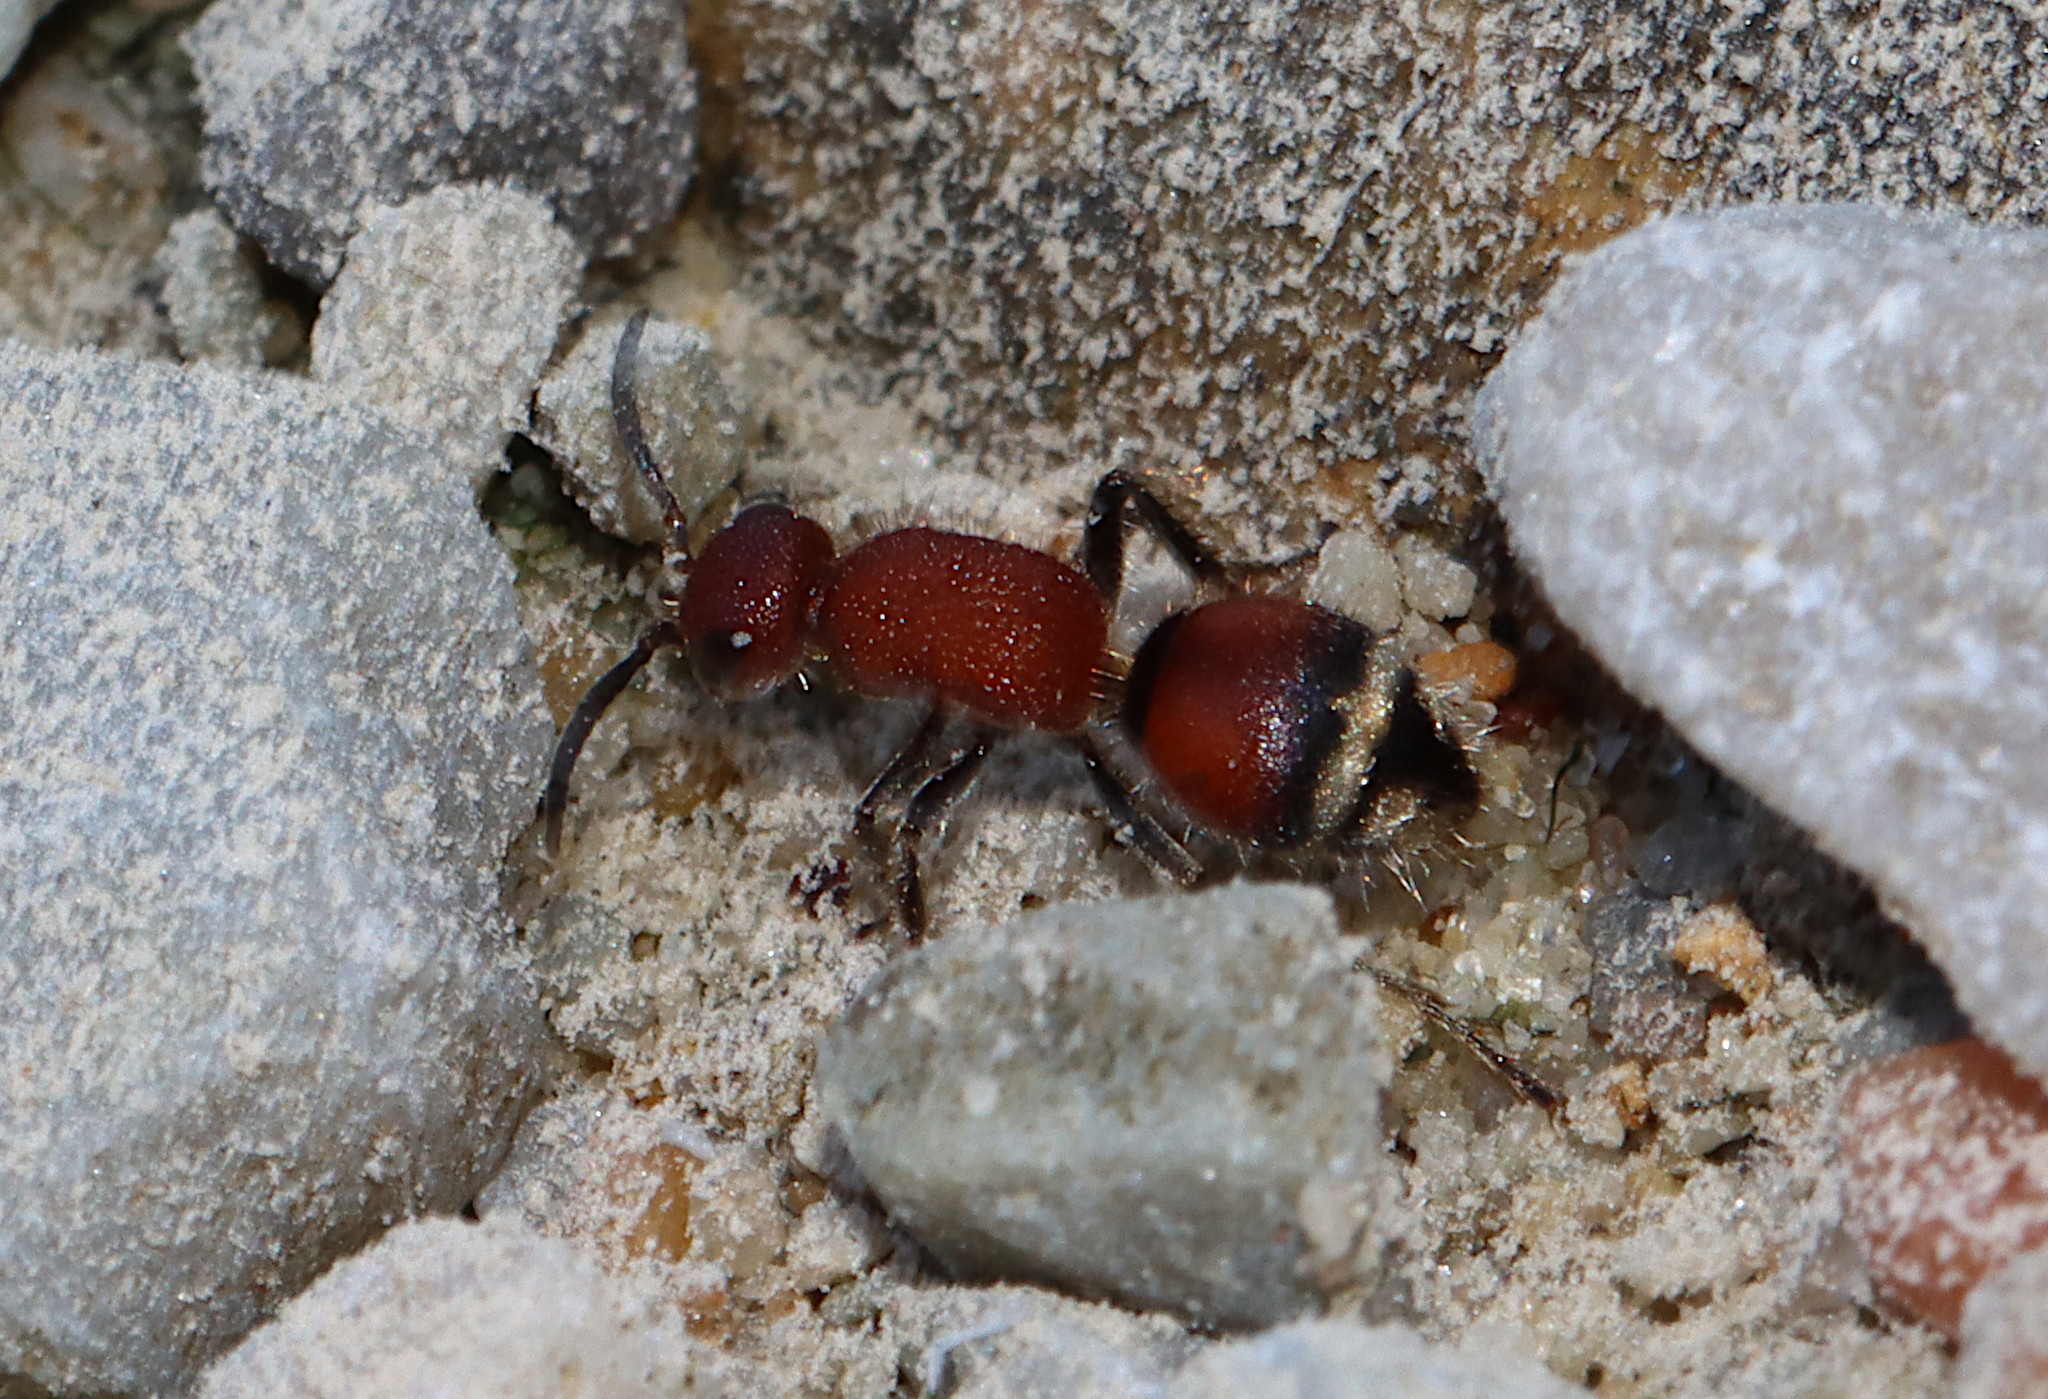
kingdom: Animalia
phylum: Arthropoda
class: Insecta
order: Hymenoptera
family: Mutillidae
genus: Timulla
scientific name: Timulla
